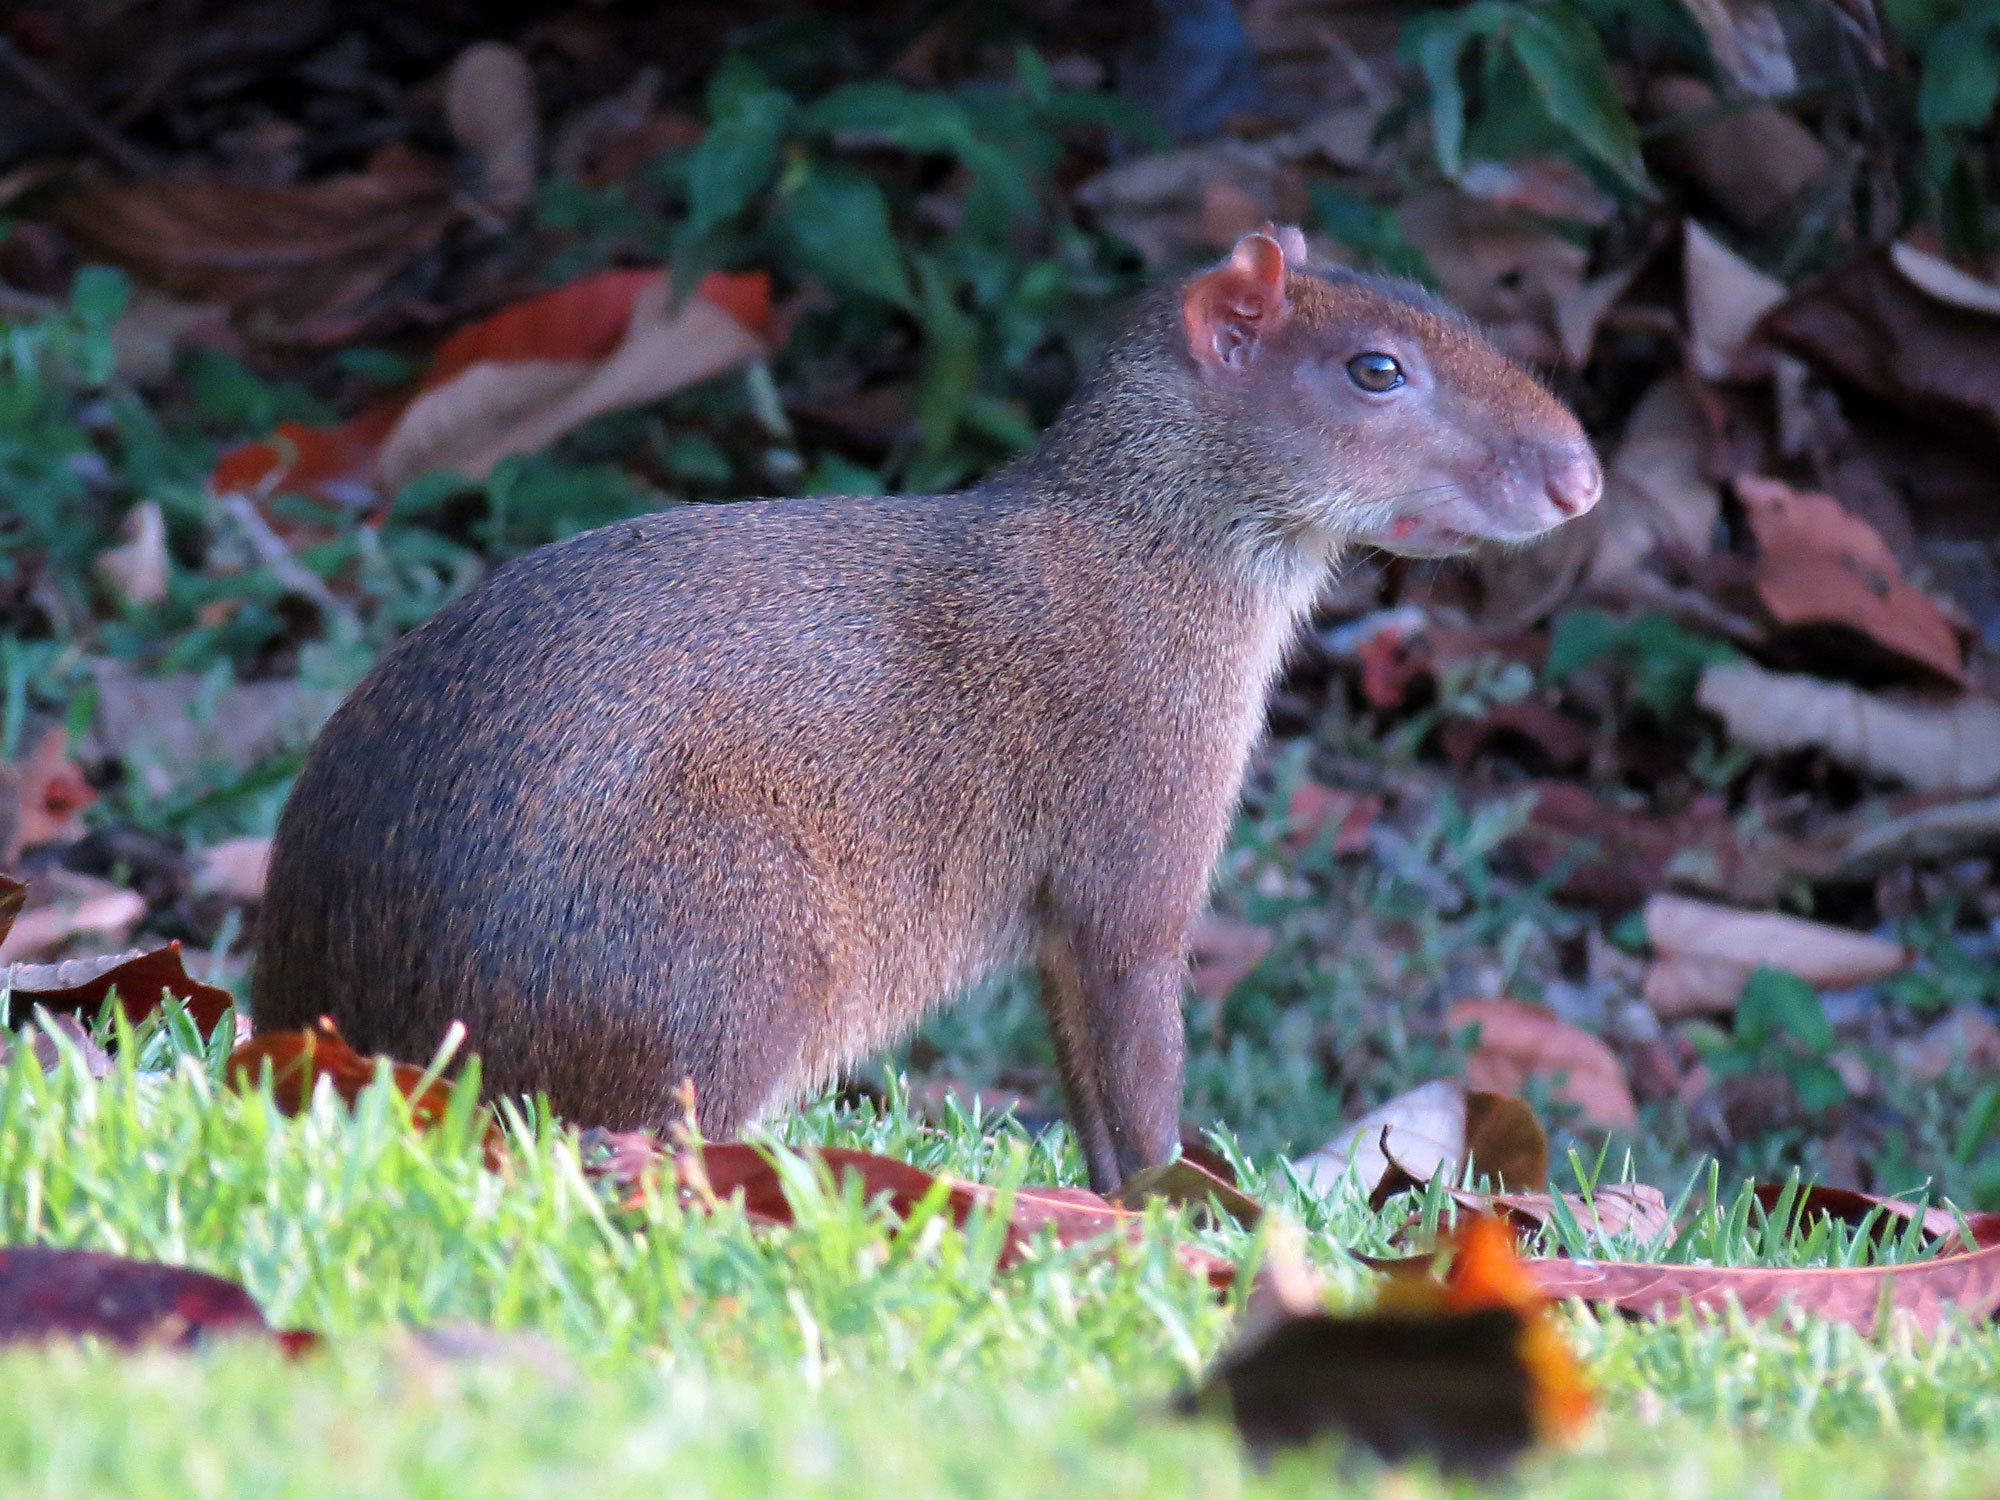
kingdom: Animalia
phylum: Chordata
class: Mammalia
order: Rodentia
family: Dasyproctidae
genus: Dasyprocta
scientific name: Dasyprocta punctata
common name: Central american agouti
